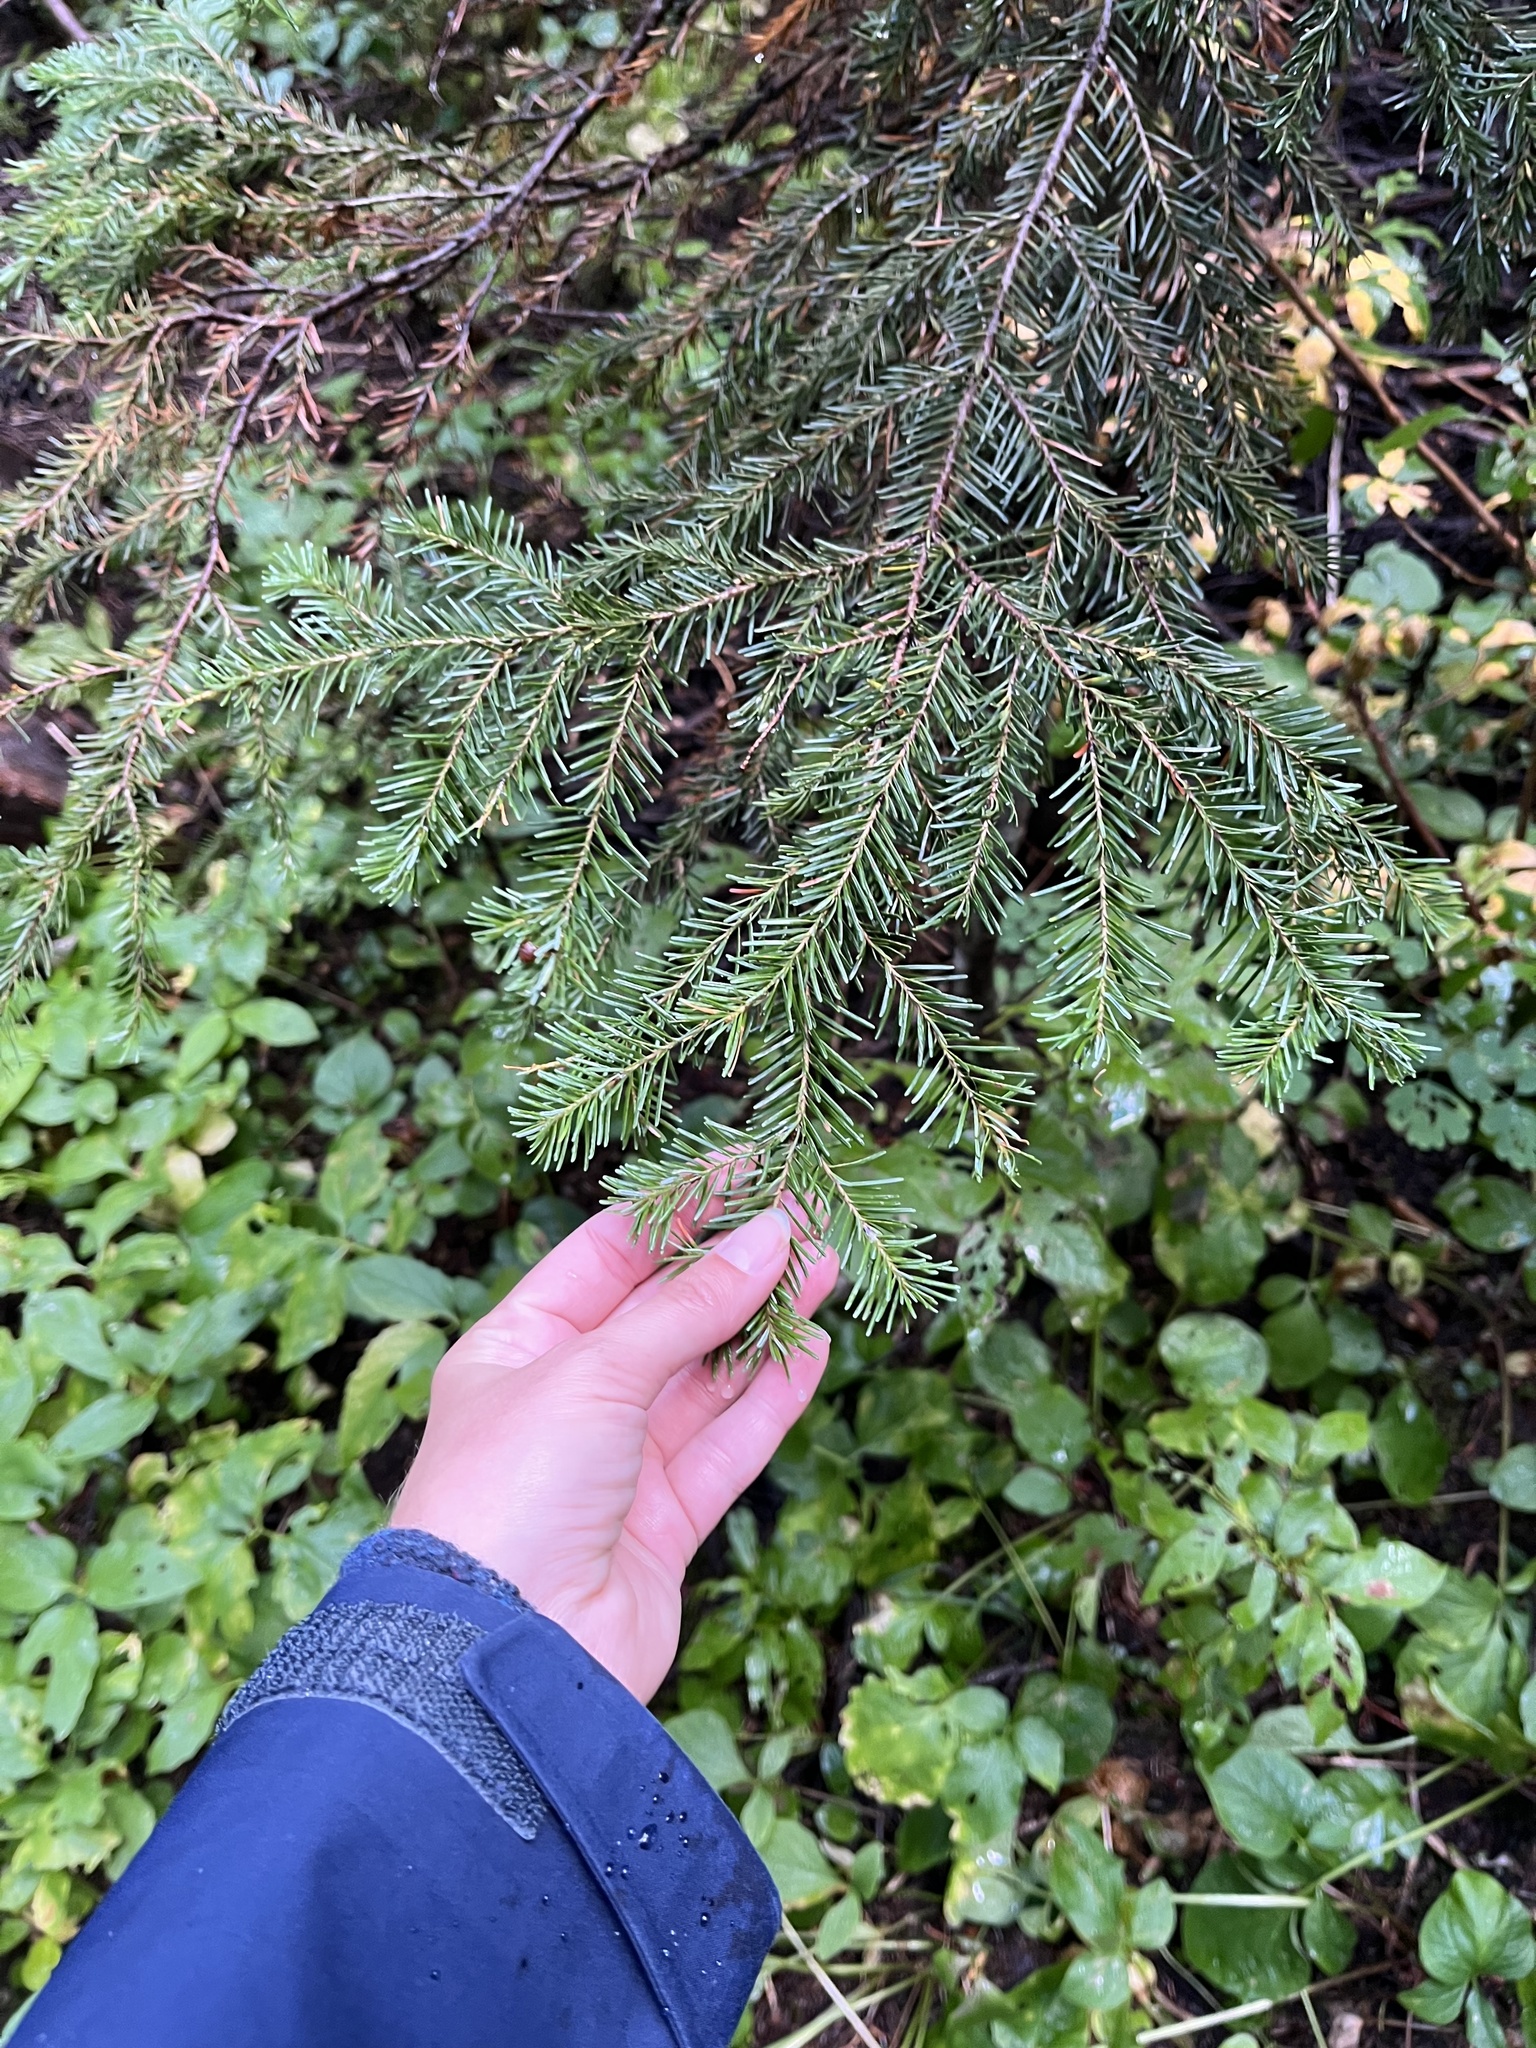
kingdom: Plantae
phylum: Tracheophyta
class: Pinopsida
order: Pinales
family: Pinaceae
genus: Abies
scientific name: Abies lasiocarpa
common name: Subalpine fir
